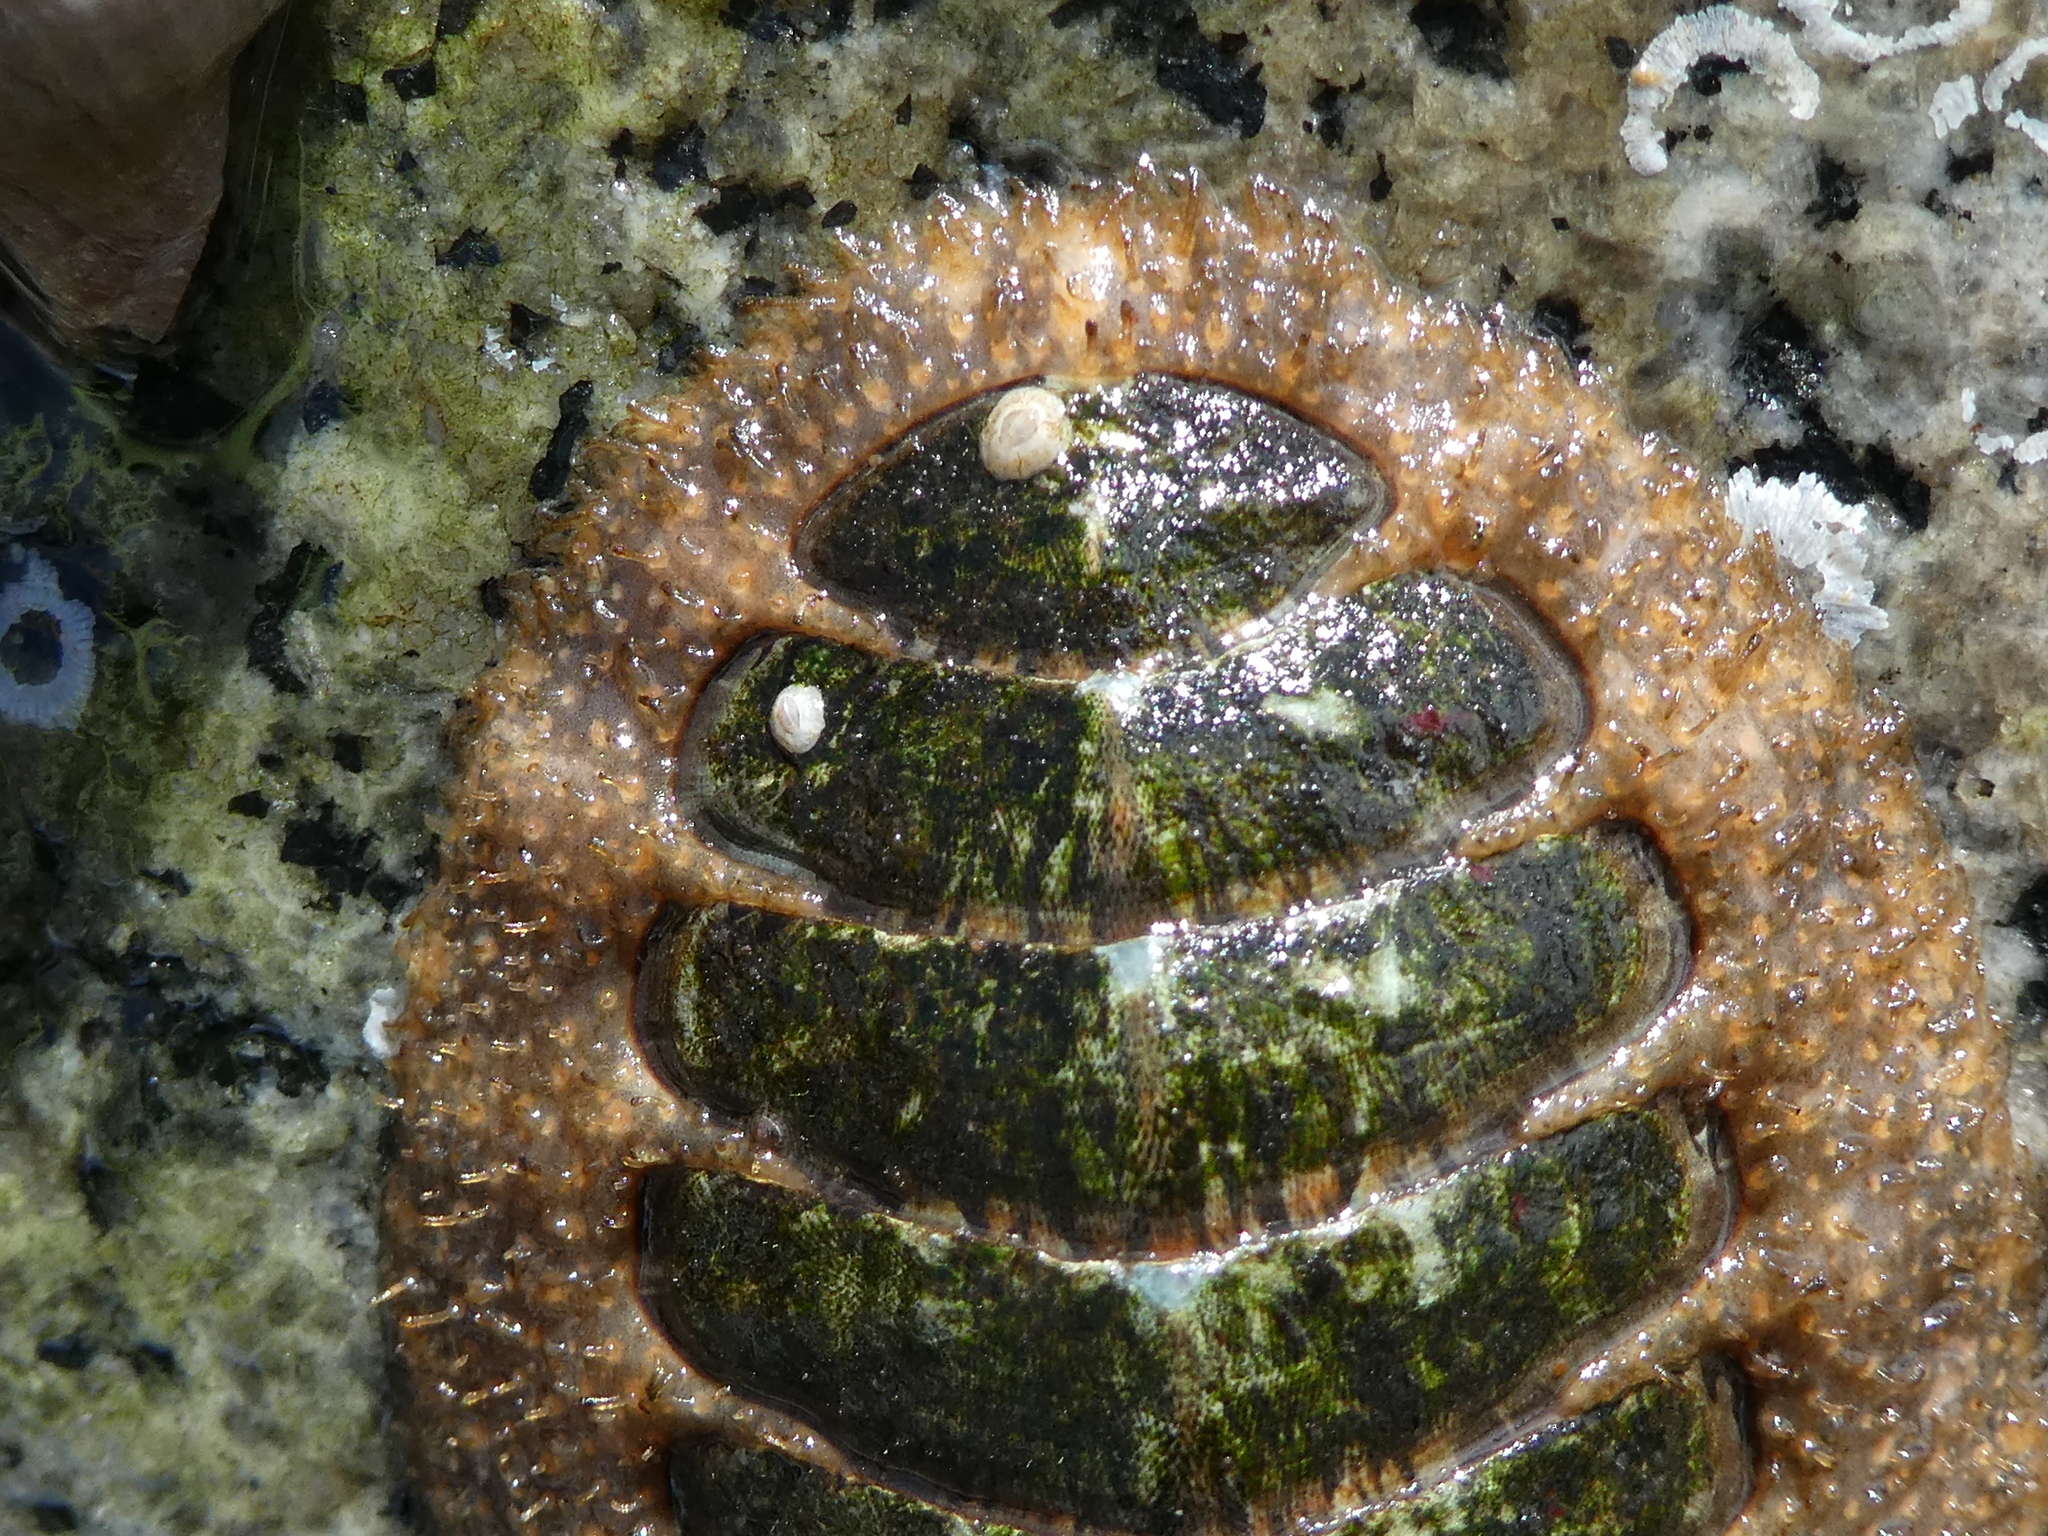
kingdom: Animalia
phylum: Mollusca
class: Polyplacophora
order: Chitonida
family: Mopaliidae
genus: Mopalia
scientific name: Mopalia lignosa
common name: Woody chiton
